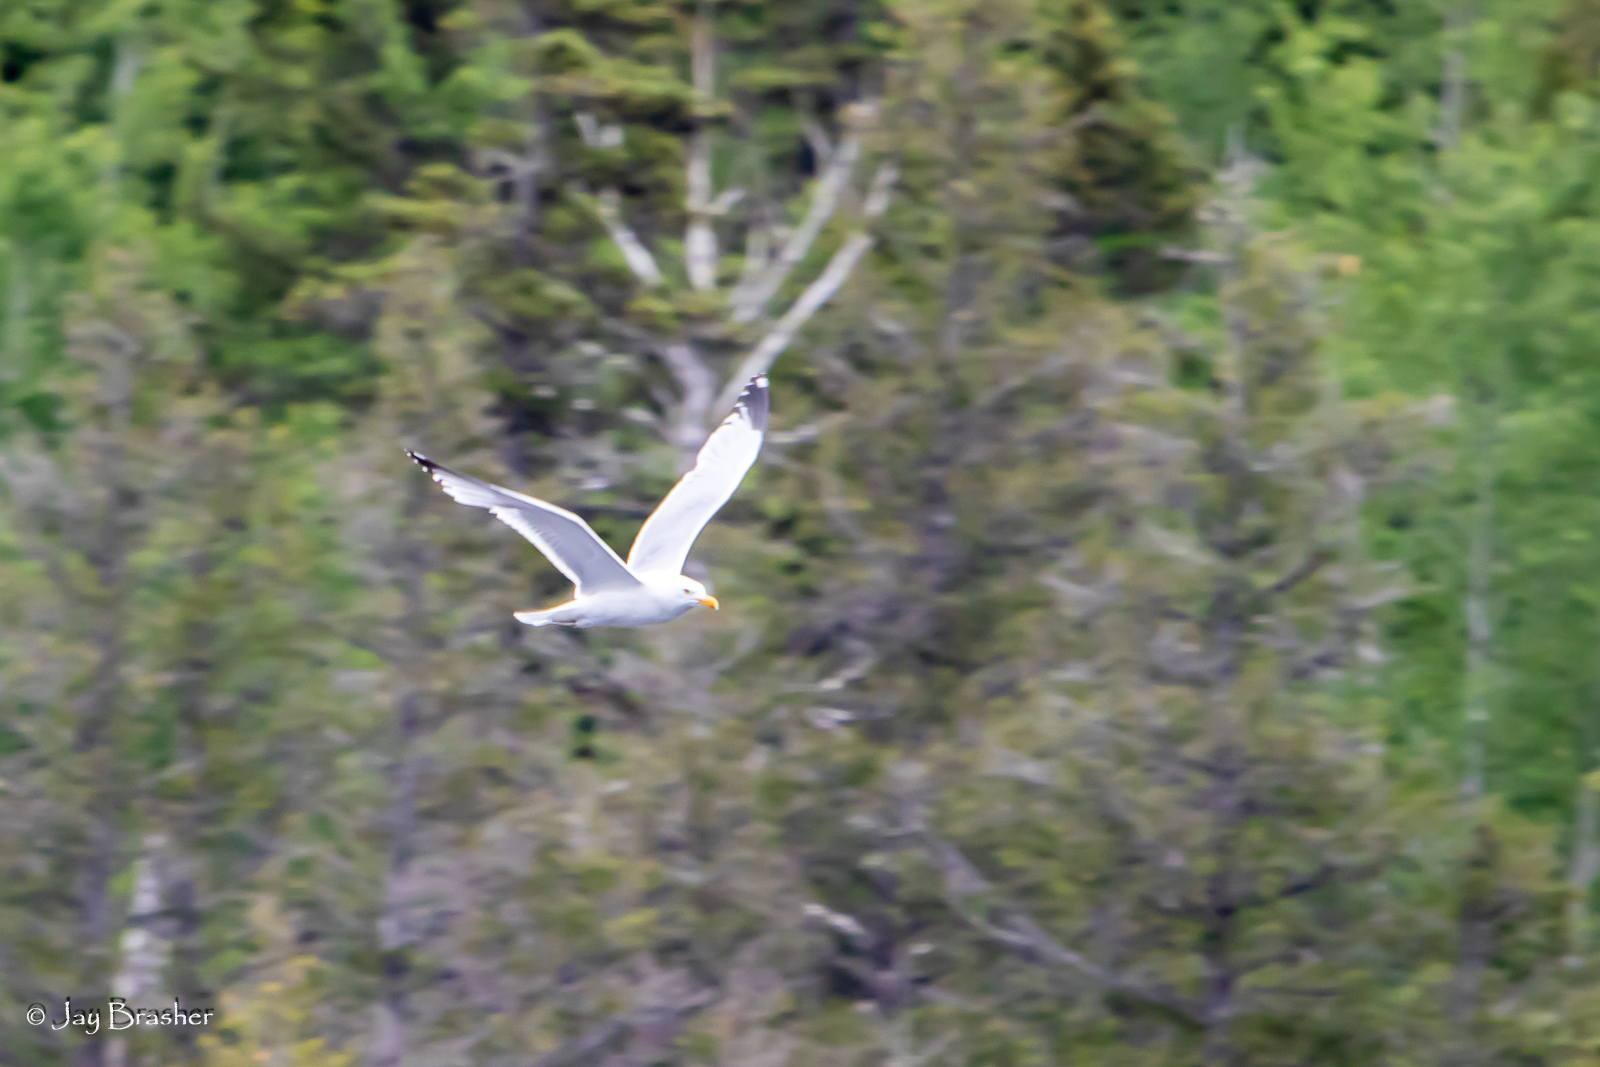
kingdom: Animalia
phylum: Chordata
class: Aves
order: Charadriiformes
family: Laridae
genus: Larus
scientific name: Larus argentatus
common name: Herring gull
